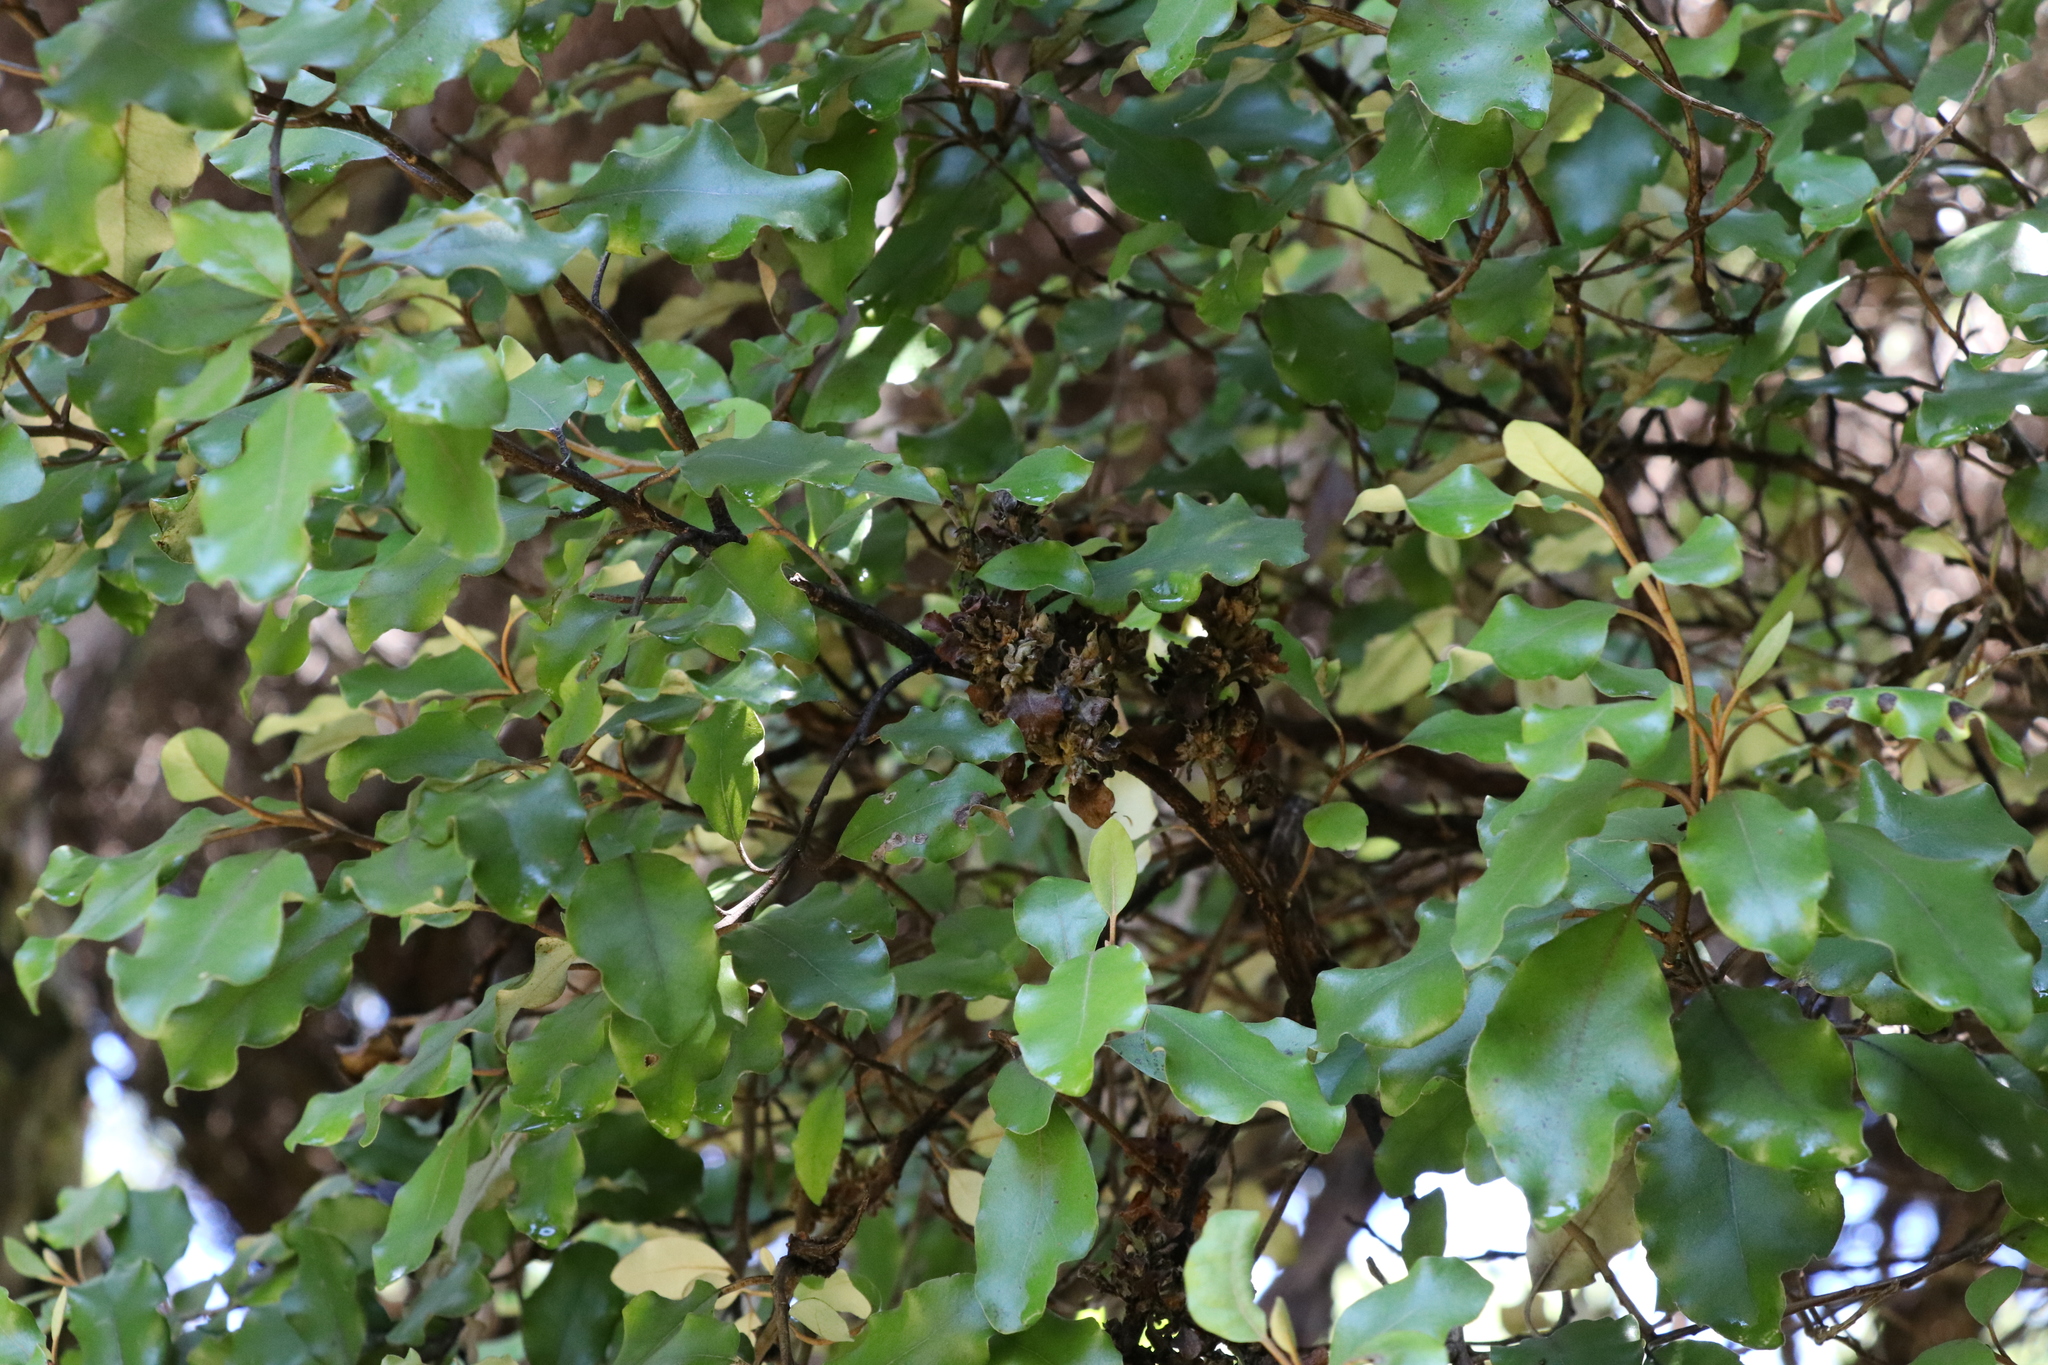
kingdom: Plantae
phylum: Tracheophyta
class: Magnoliopsida
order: Asterales
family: Asteraceae
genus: Olearia
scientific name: Olearia paniculata
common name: Akiraho
